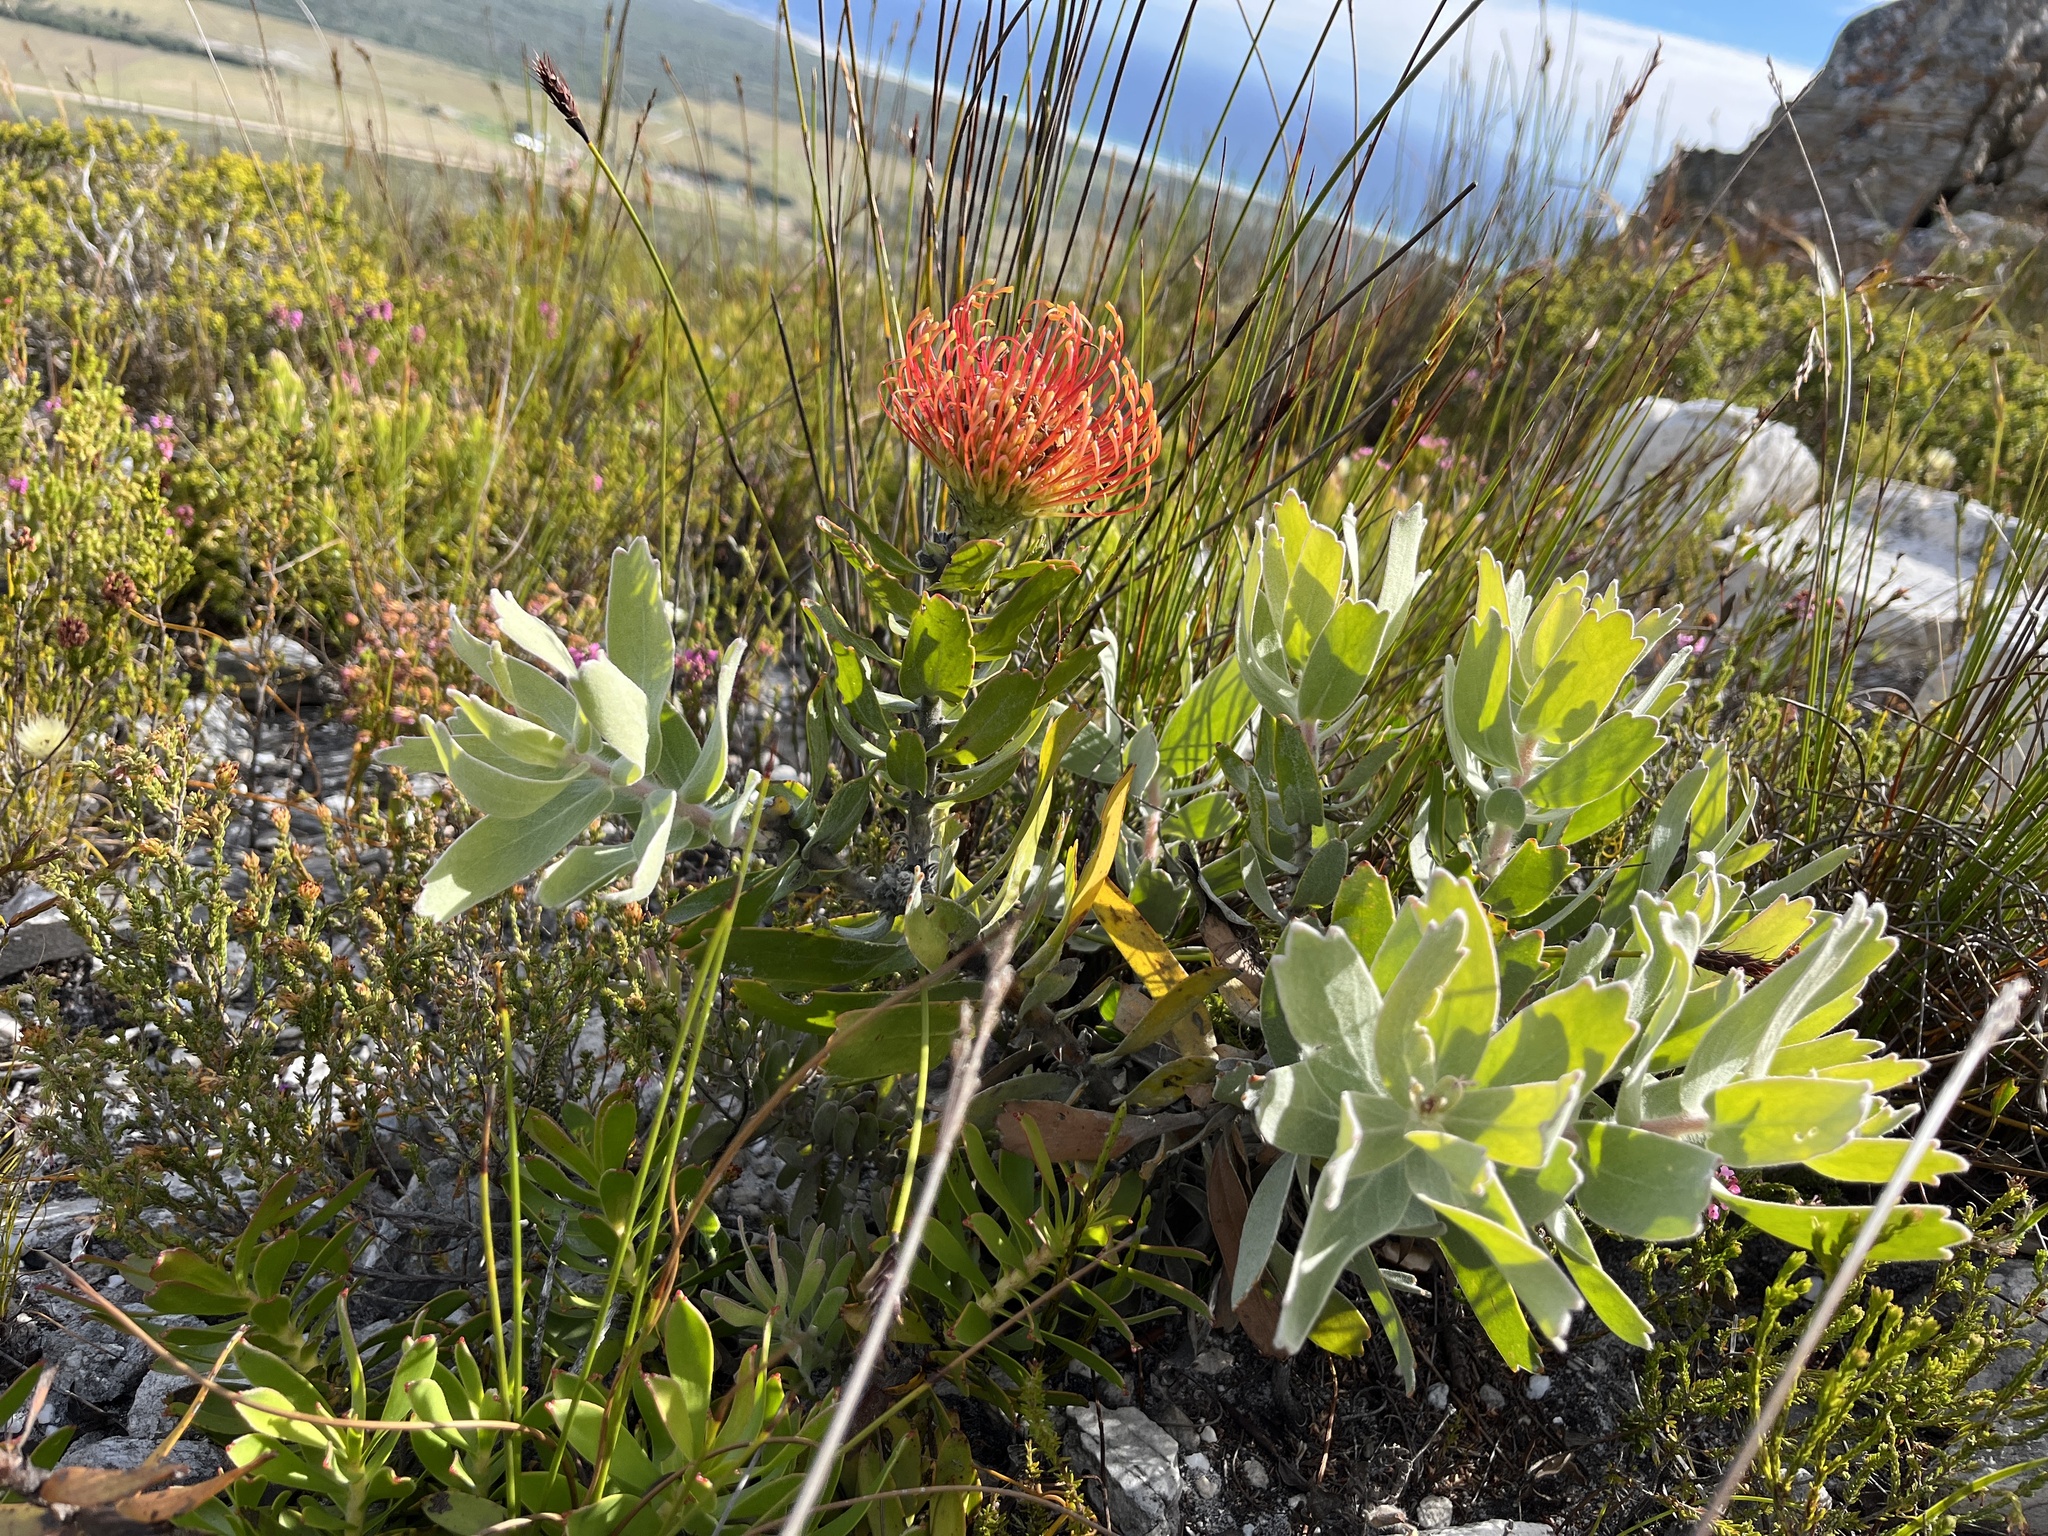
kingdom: Plantae
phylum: Tracheophyta
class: Magnoliopsida
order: Proteales
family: Proteaceae
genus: Leucospermum
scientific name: Leucospermum cordifolium
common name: Red pincushion-protea
